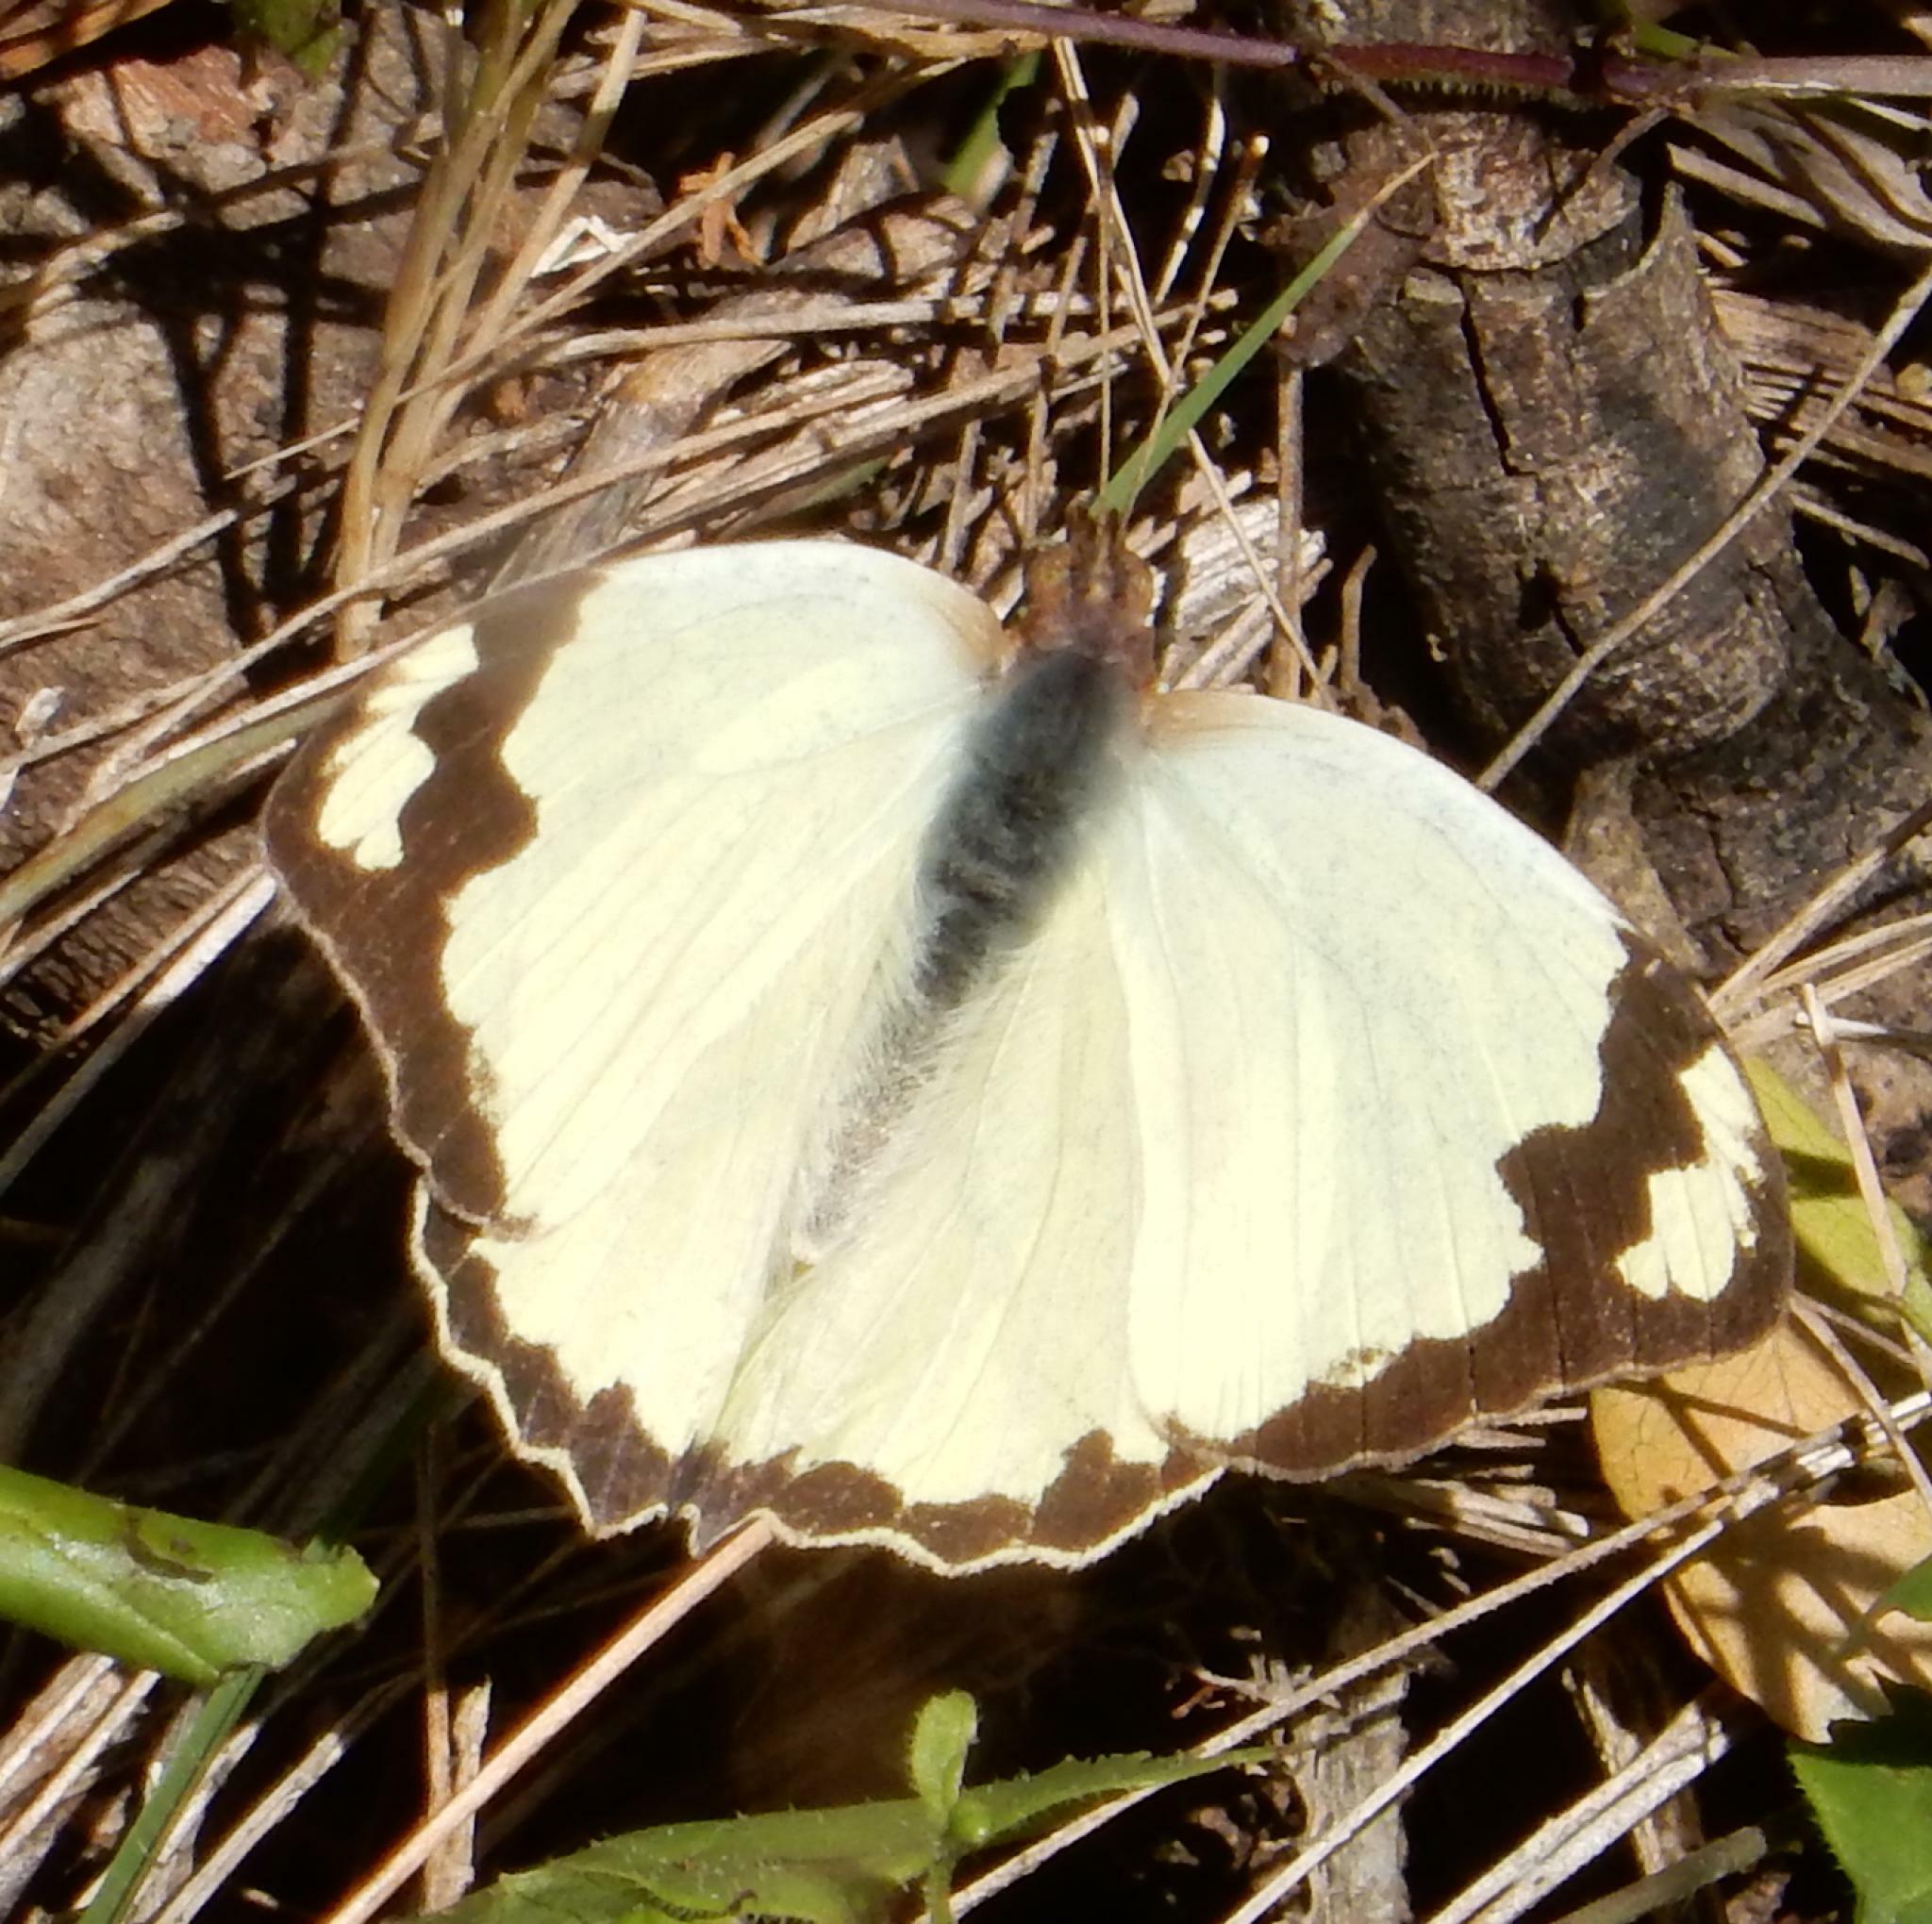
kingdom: Animalia
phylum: Arthropoda
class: Insecta
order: Lepidoptera
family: Pieridae
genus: Eronia
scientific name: Eronia cleodora
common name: Vine-leaf vagrant
